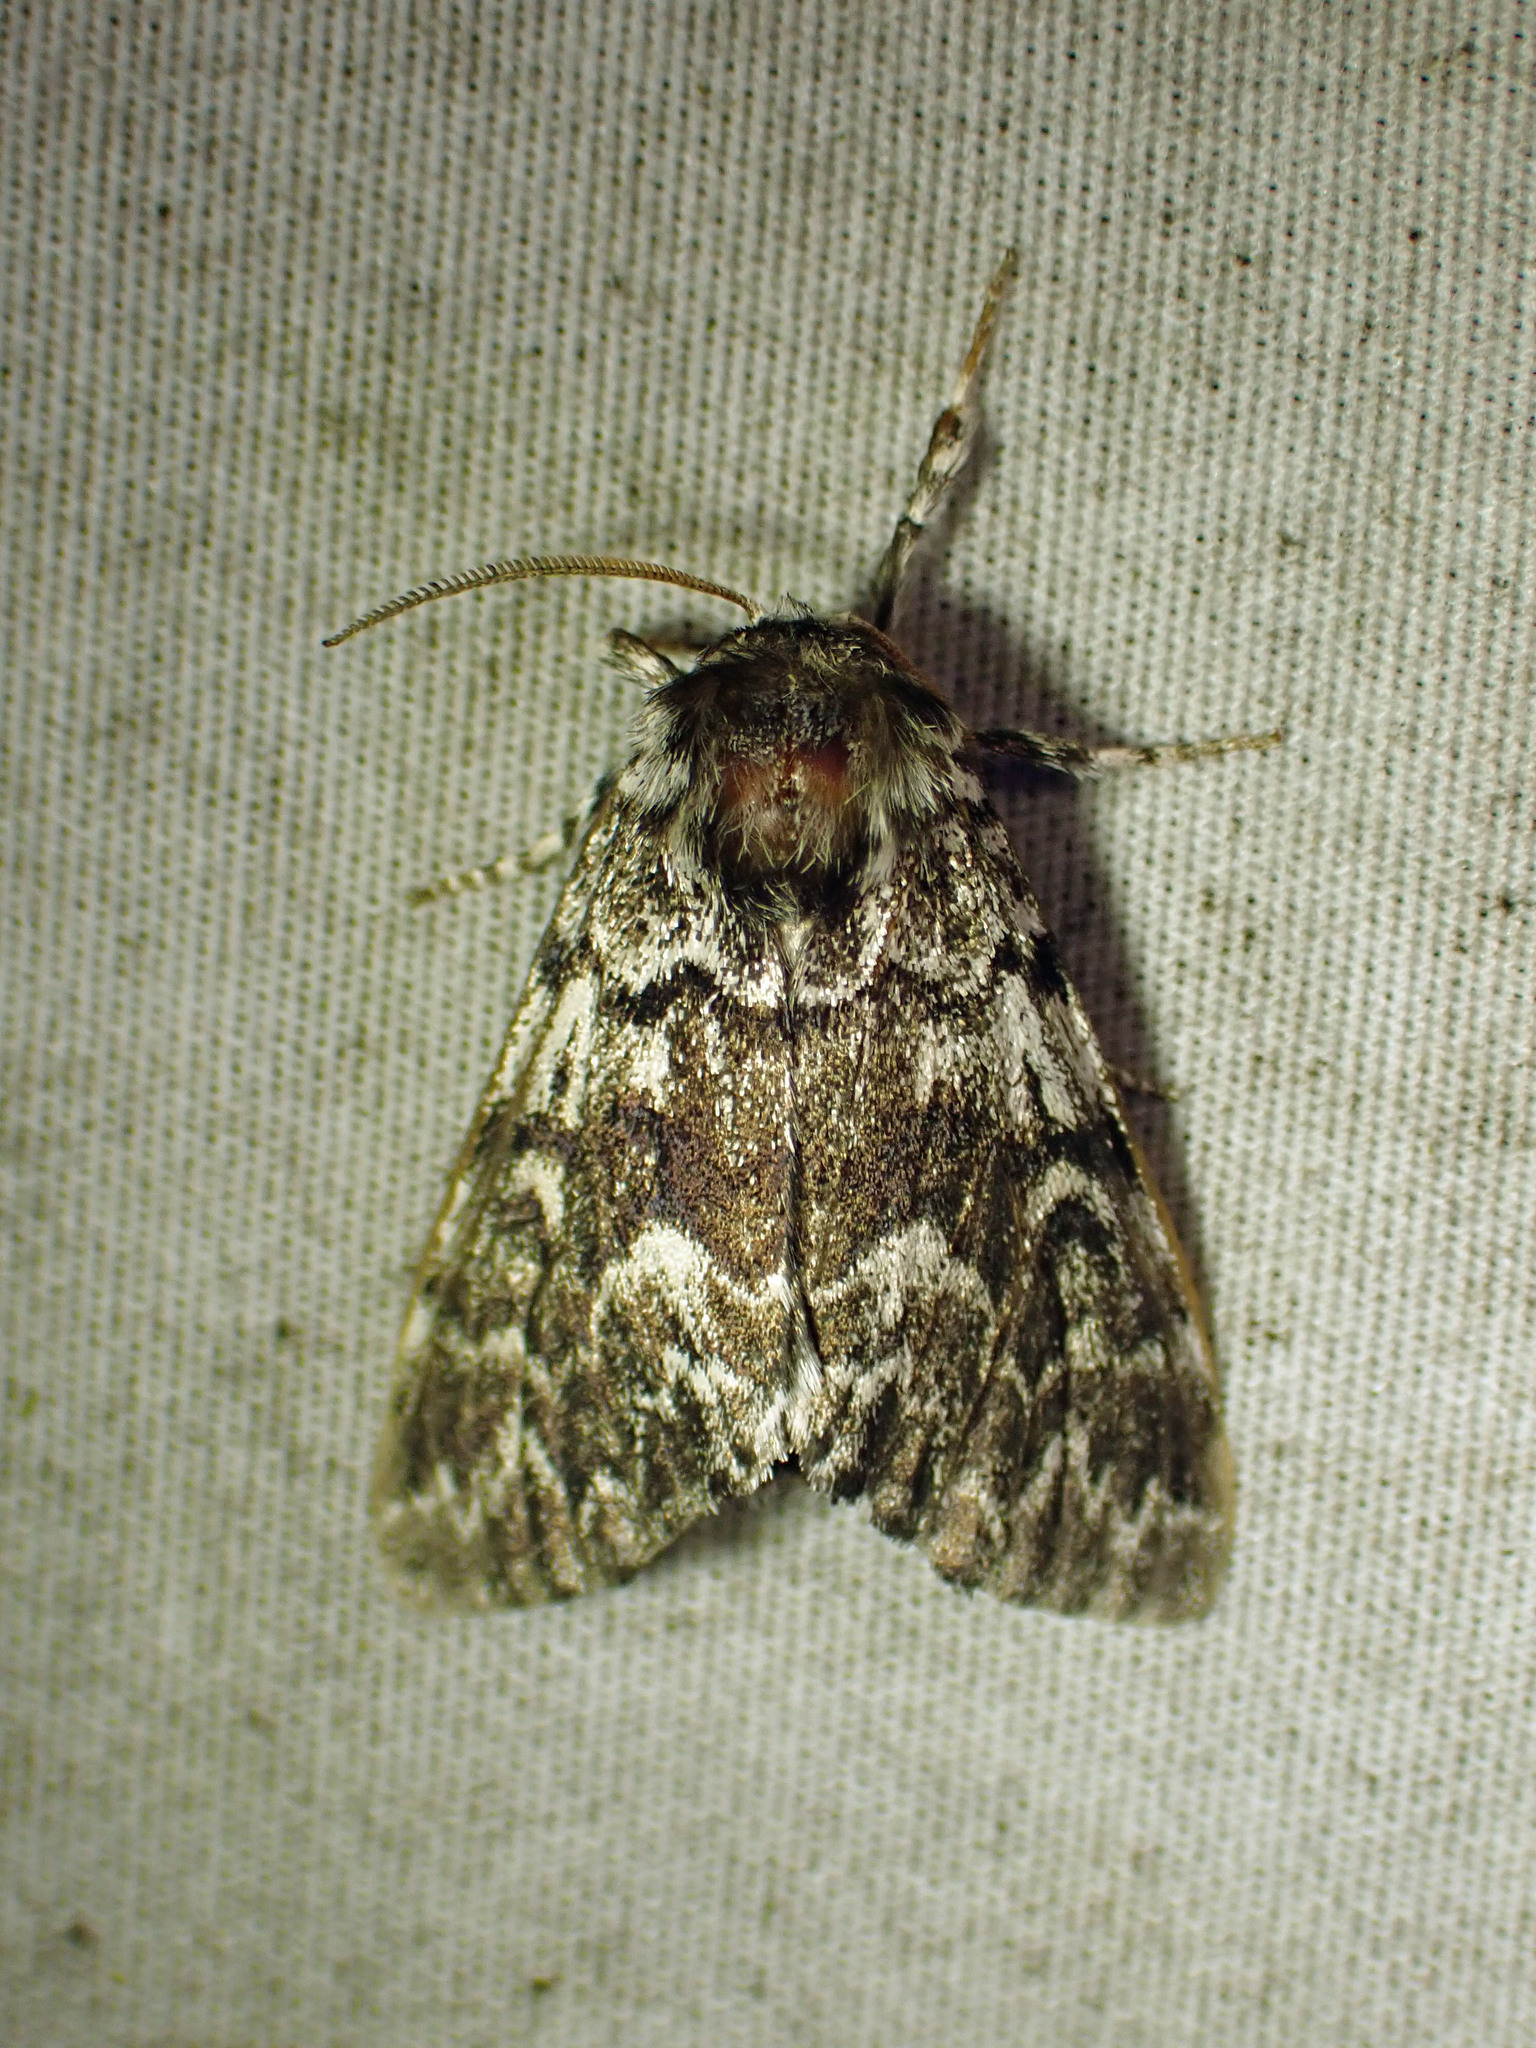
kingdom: Animalia
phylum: Arthropoda
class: Insecta
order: Lepidoptera
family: Noctuidae
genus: Panthea
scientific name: Panthea acronyctoides
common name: Black zigzag moth
